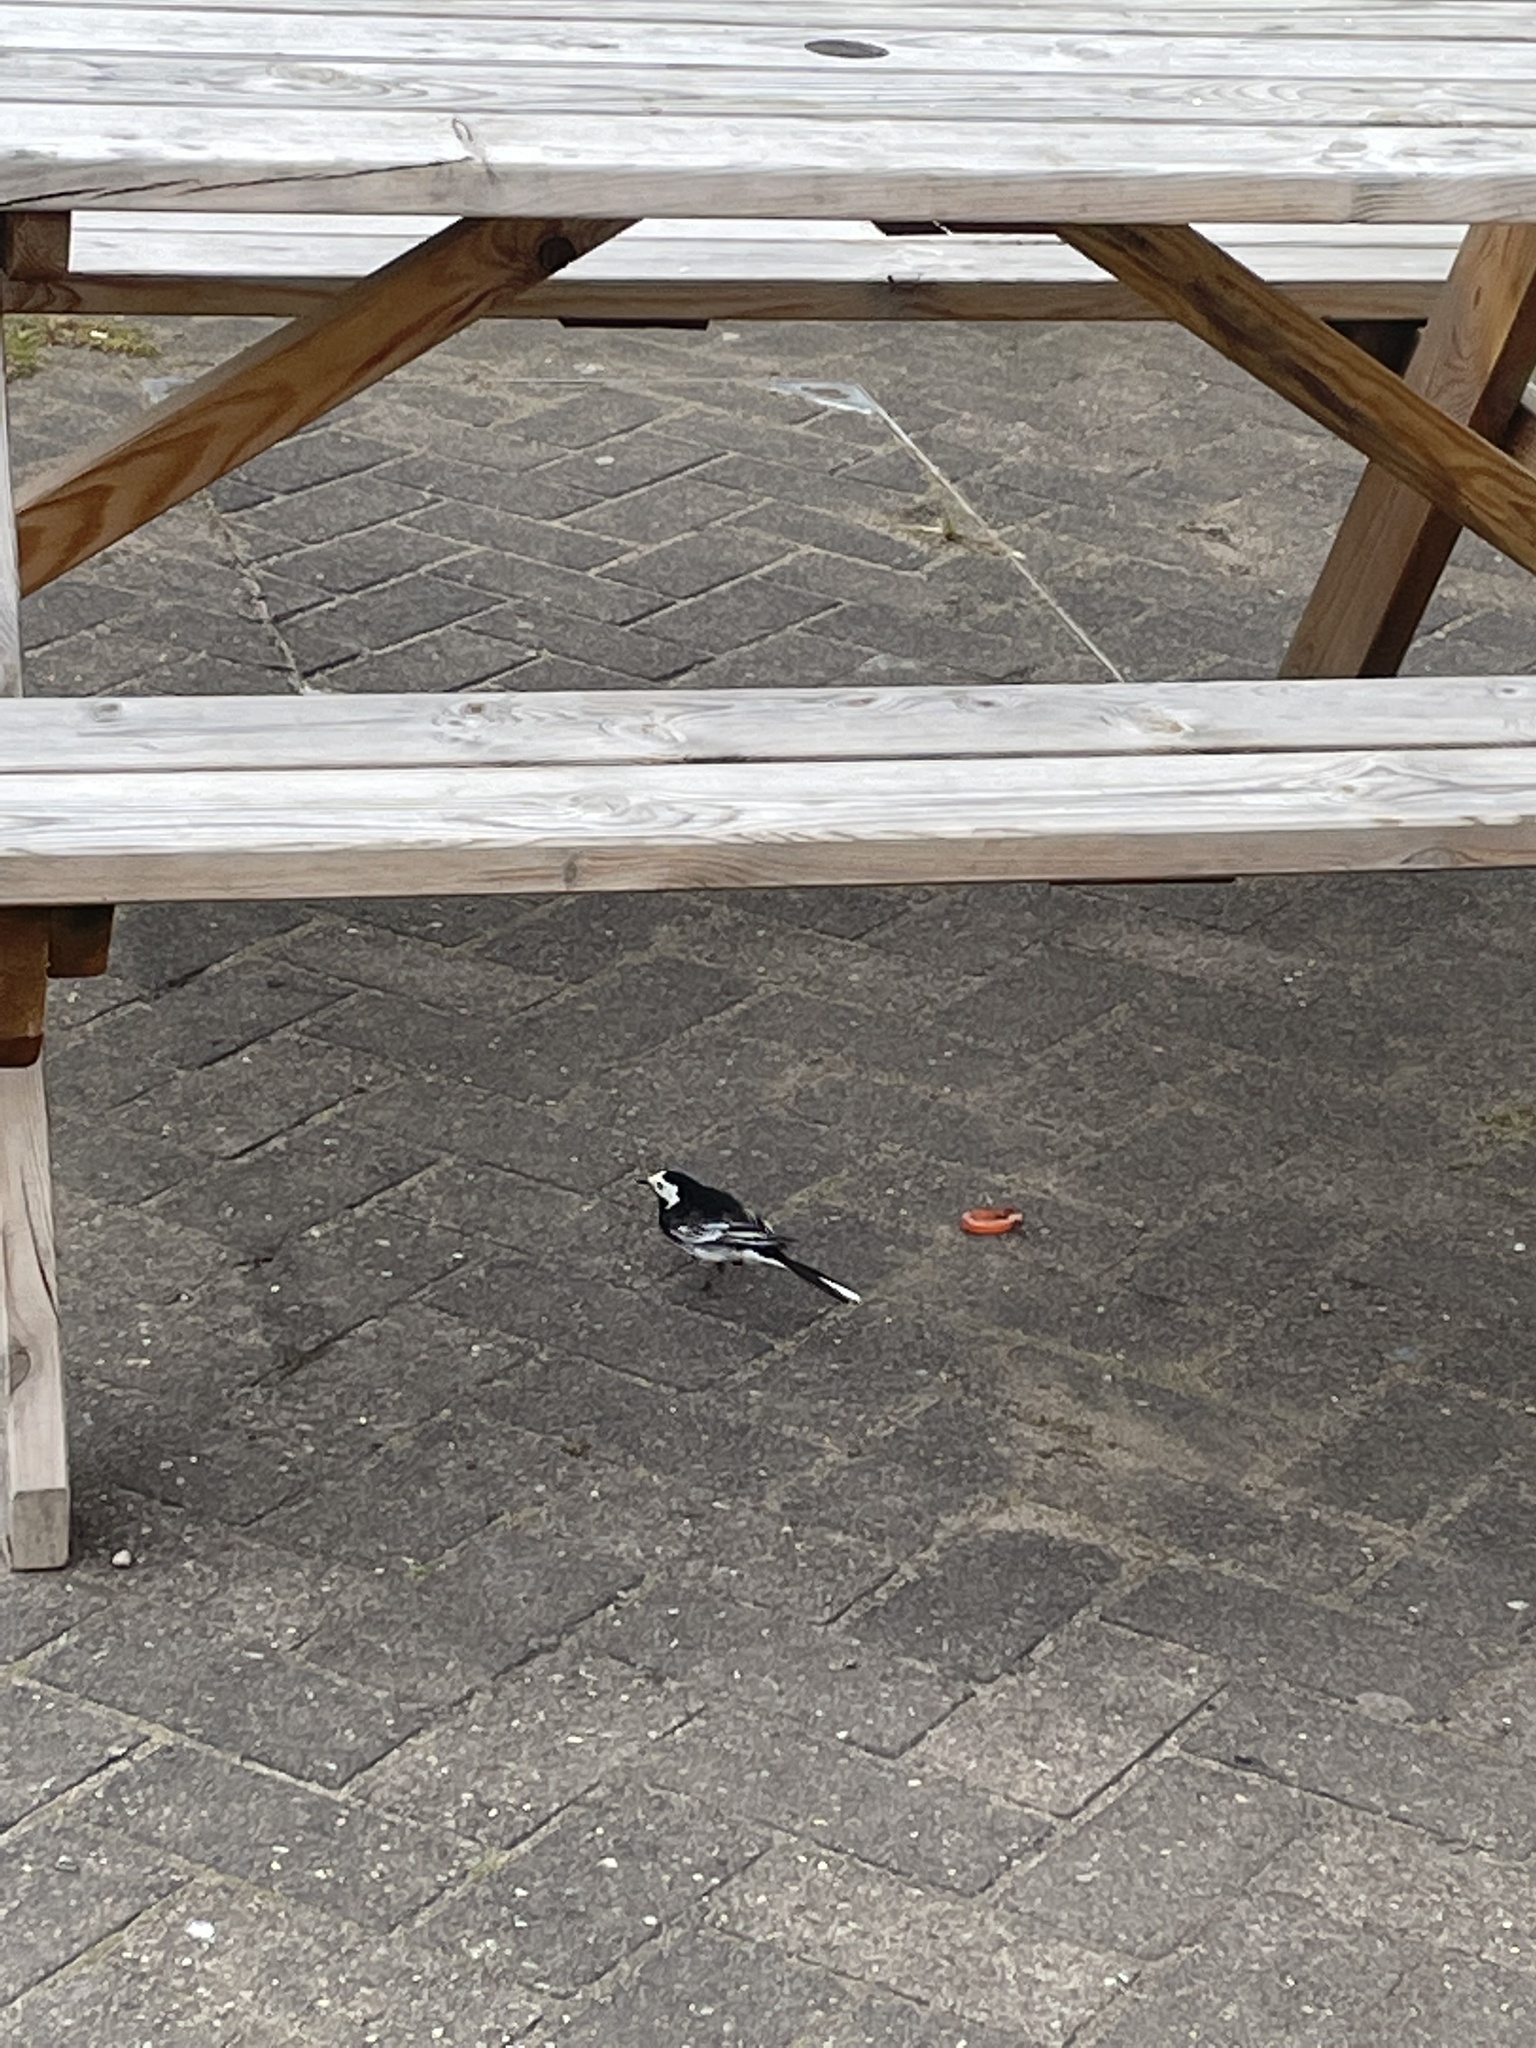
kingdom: Animalia
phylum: Chordata
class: Aves
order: Passeriformes
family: Motacillidae
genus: Motacilla
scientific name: Motacilla alba
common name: White wagtail
